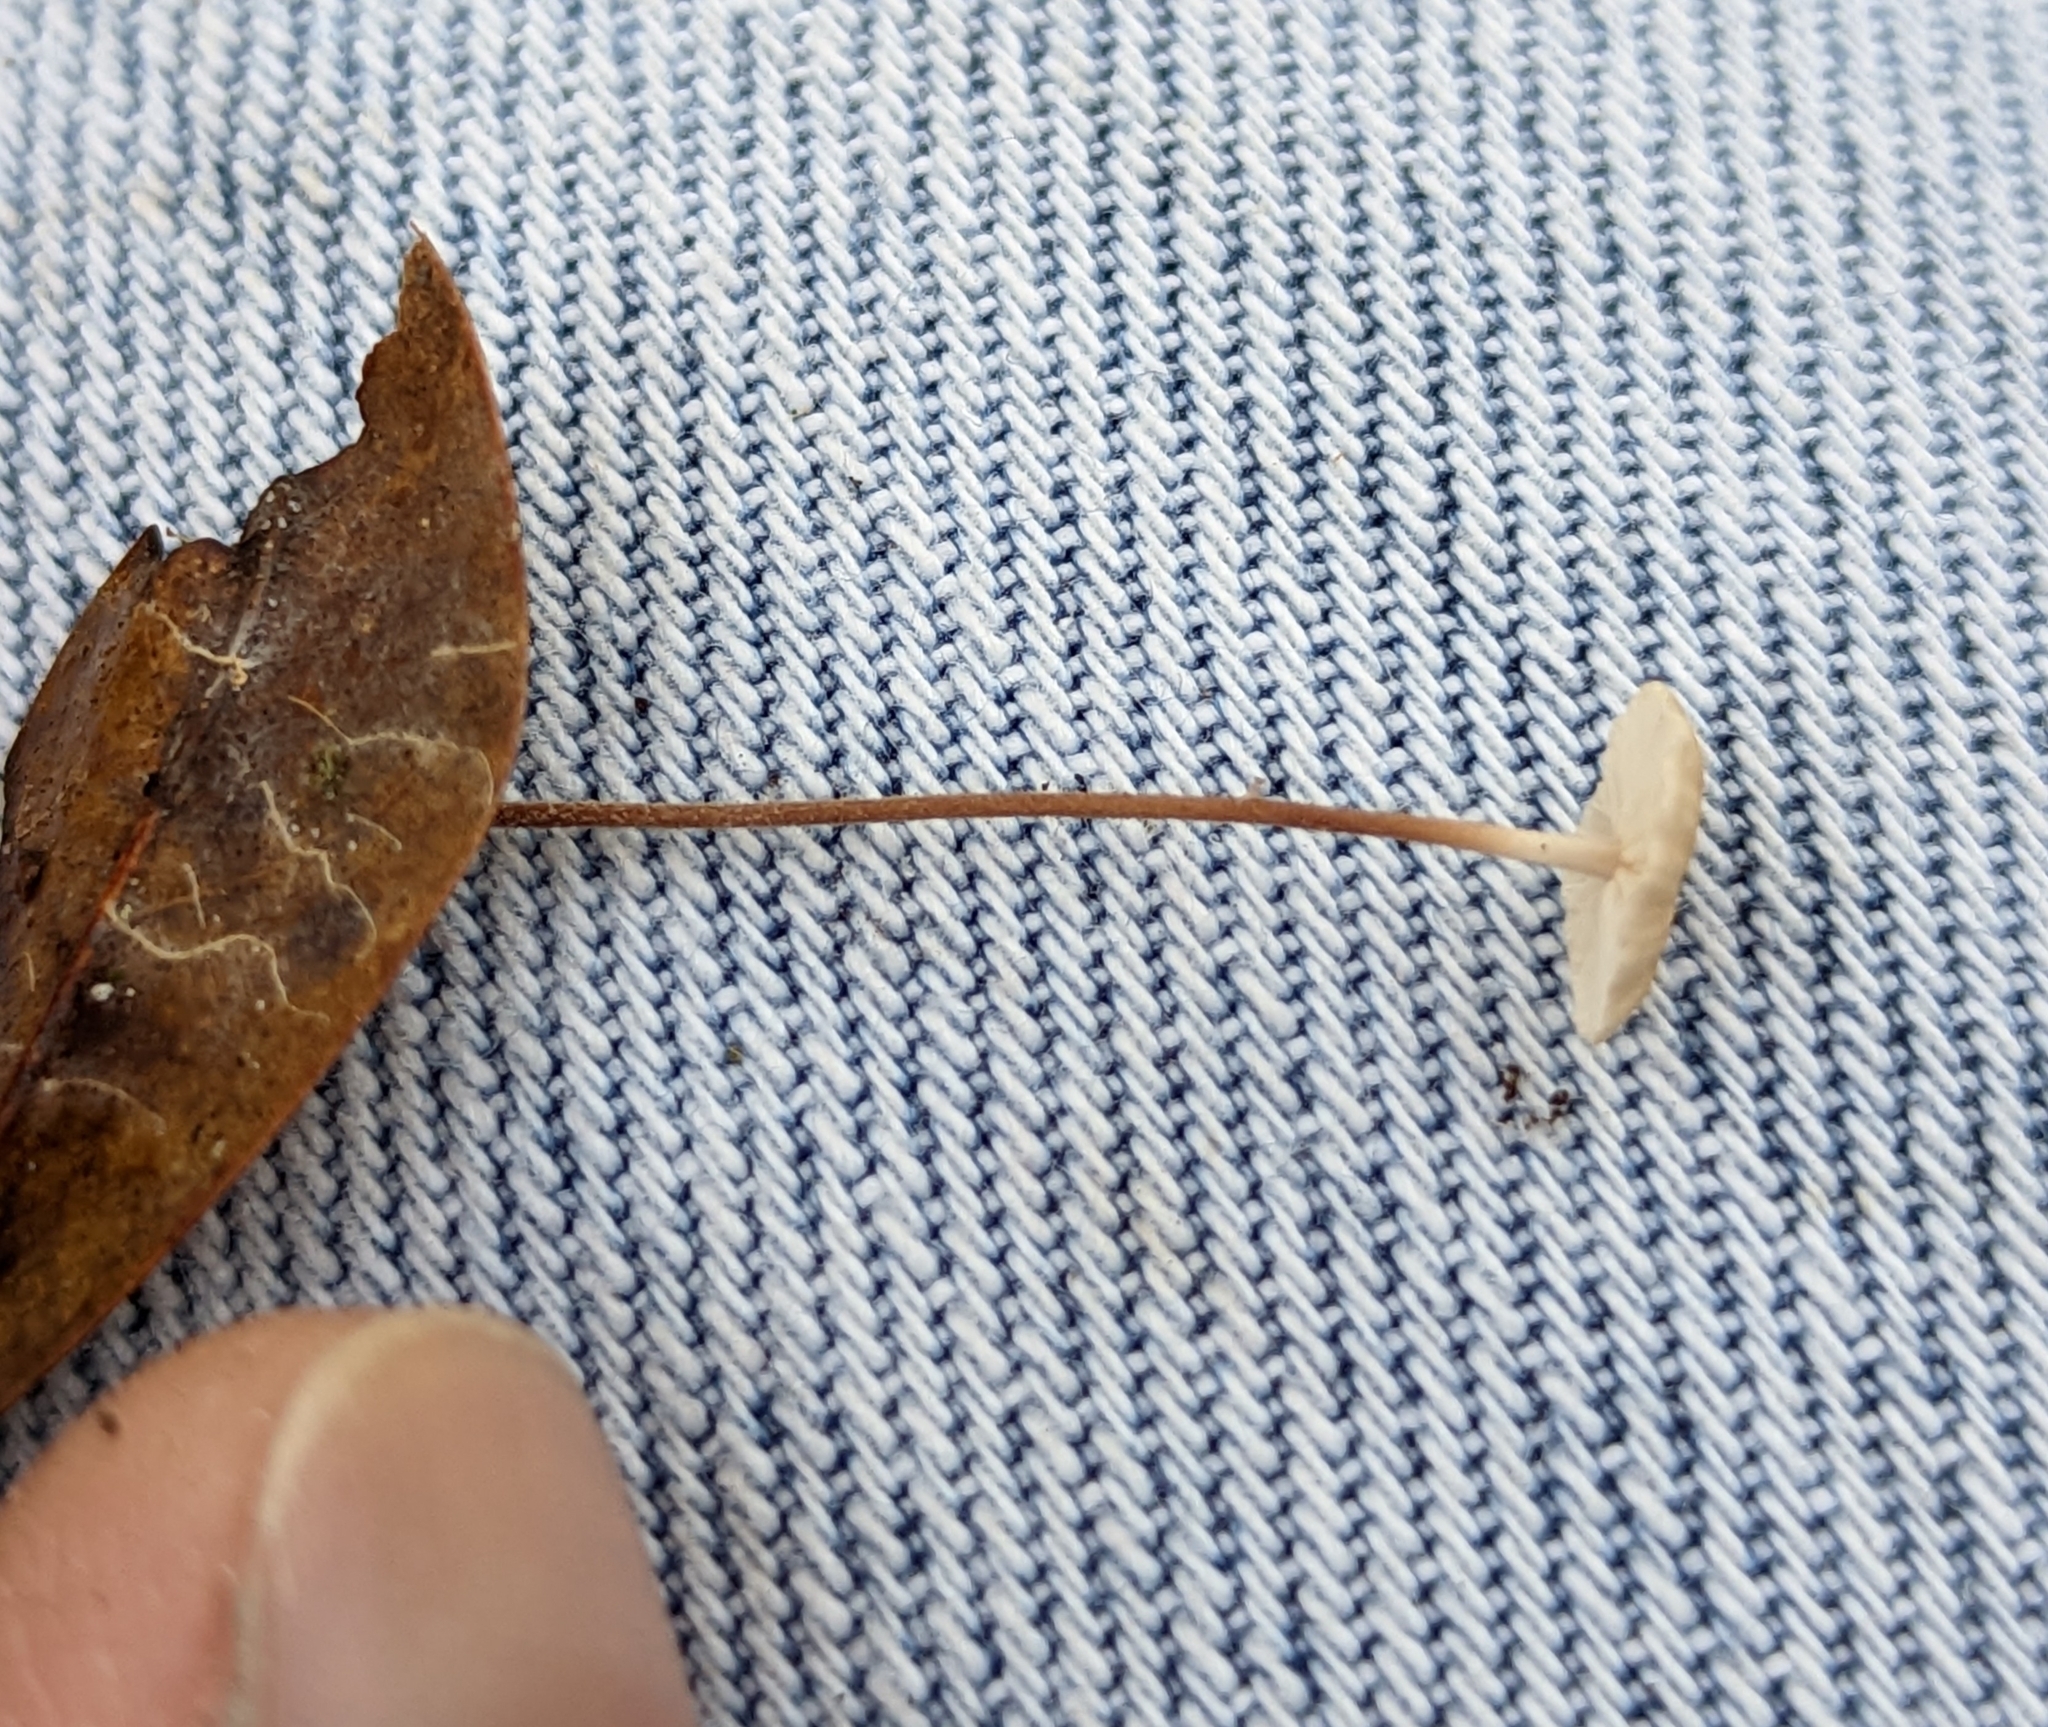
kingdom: Fungi
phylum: Basidiomycota
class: Agaricomycetes
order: Agaricales
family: Omphalotaceae
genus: Collybiopsis
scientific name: Collybiopsis quercophila
